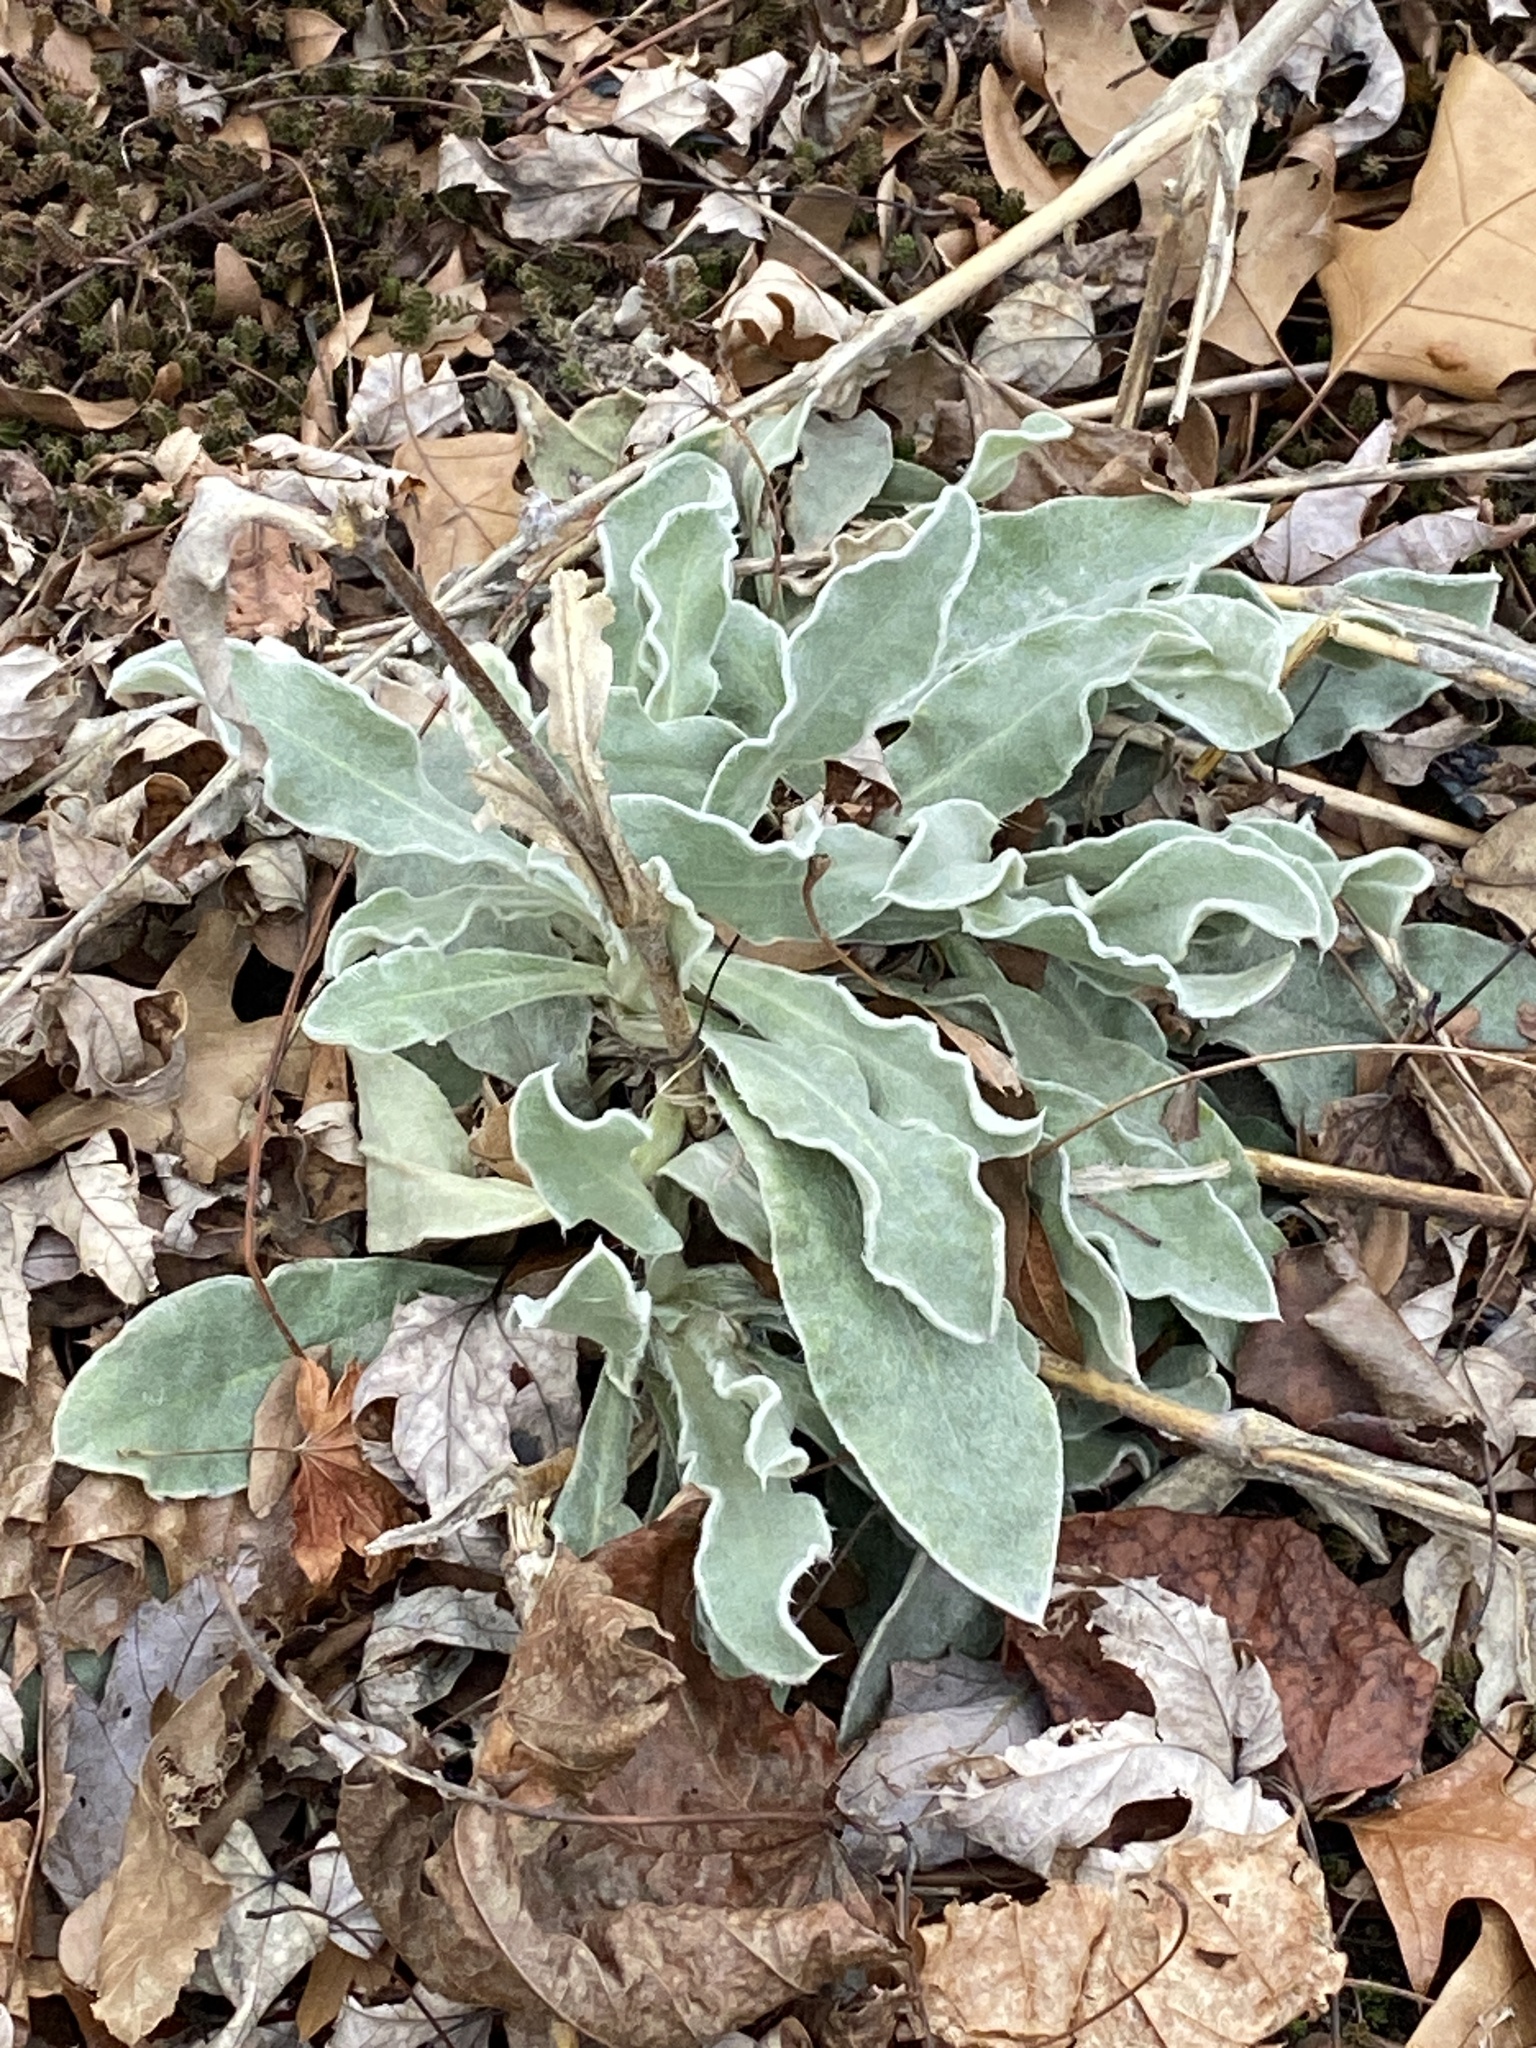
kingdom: Plantae
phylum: Tracheophyta
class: Magnoliopsida
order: Caryophyllales
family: Caryophyllaceae
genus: Silene
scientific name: Silene coronaria
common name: Rose campion
